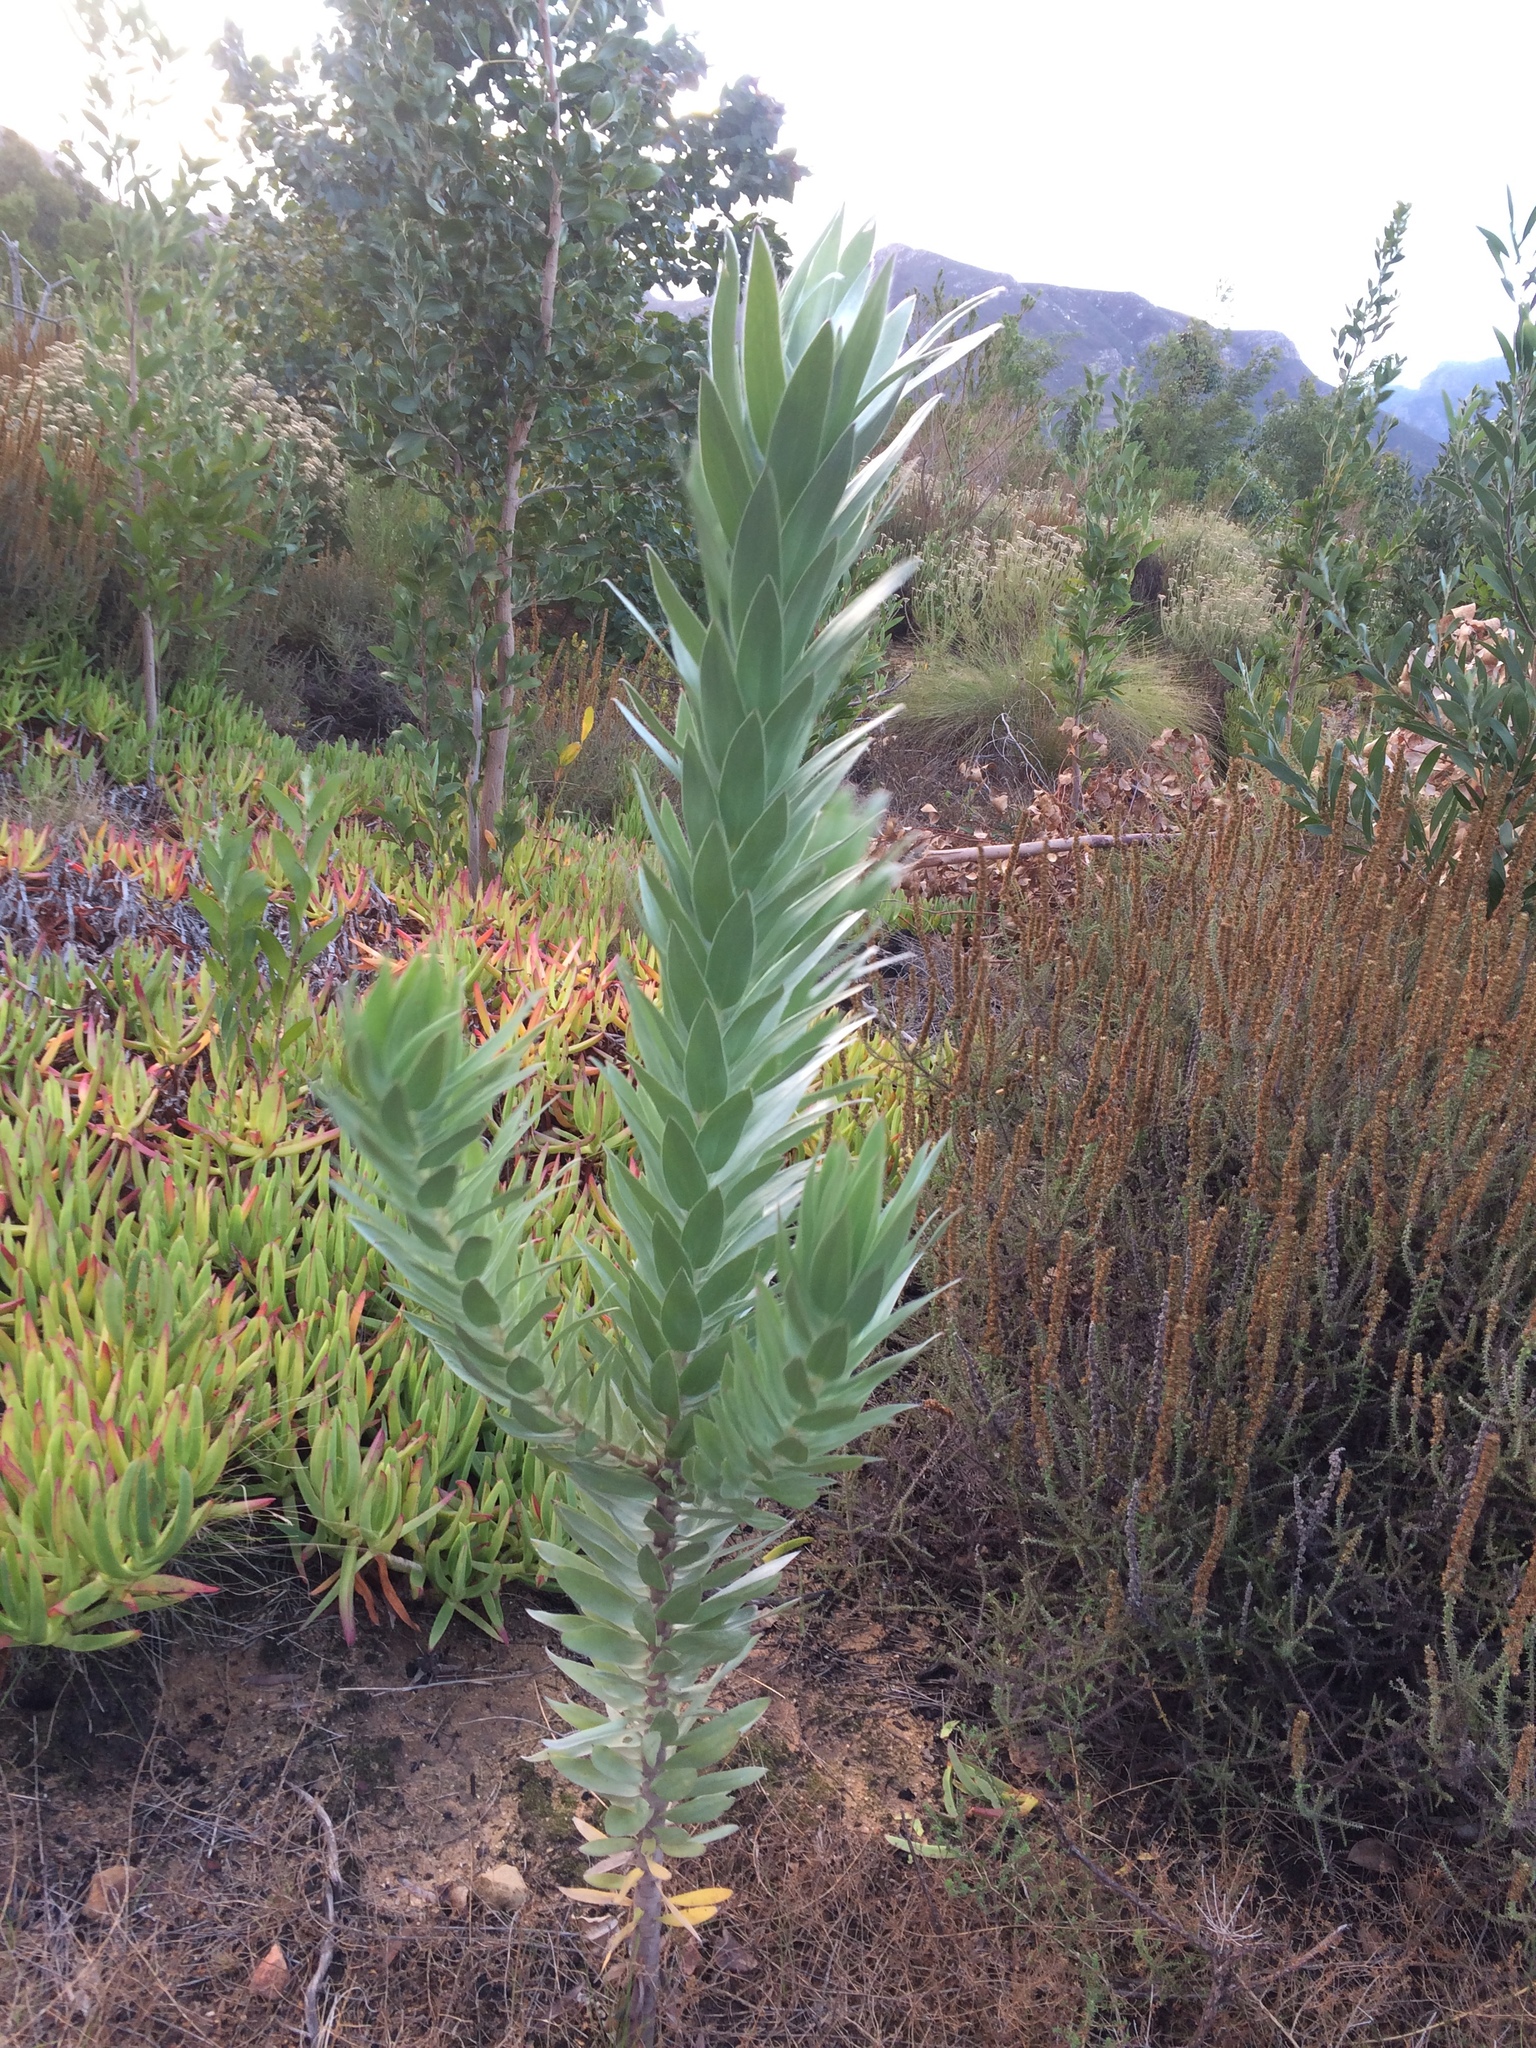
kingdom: Plantae
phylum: Tracheophyta
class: Magnoliopsida
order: Proteales
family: Proteaceae
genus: Leucadendron
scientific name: Leucadendron argenteum
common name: Cape silver tree
